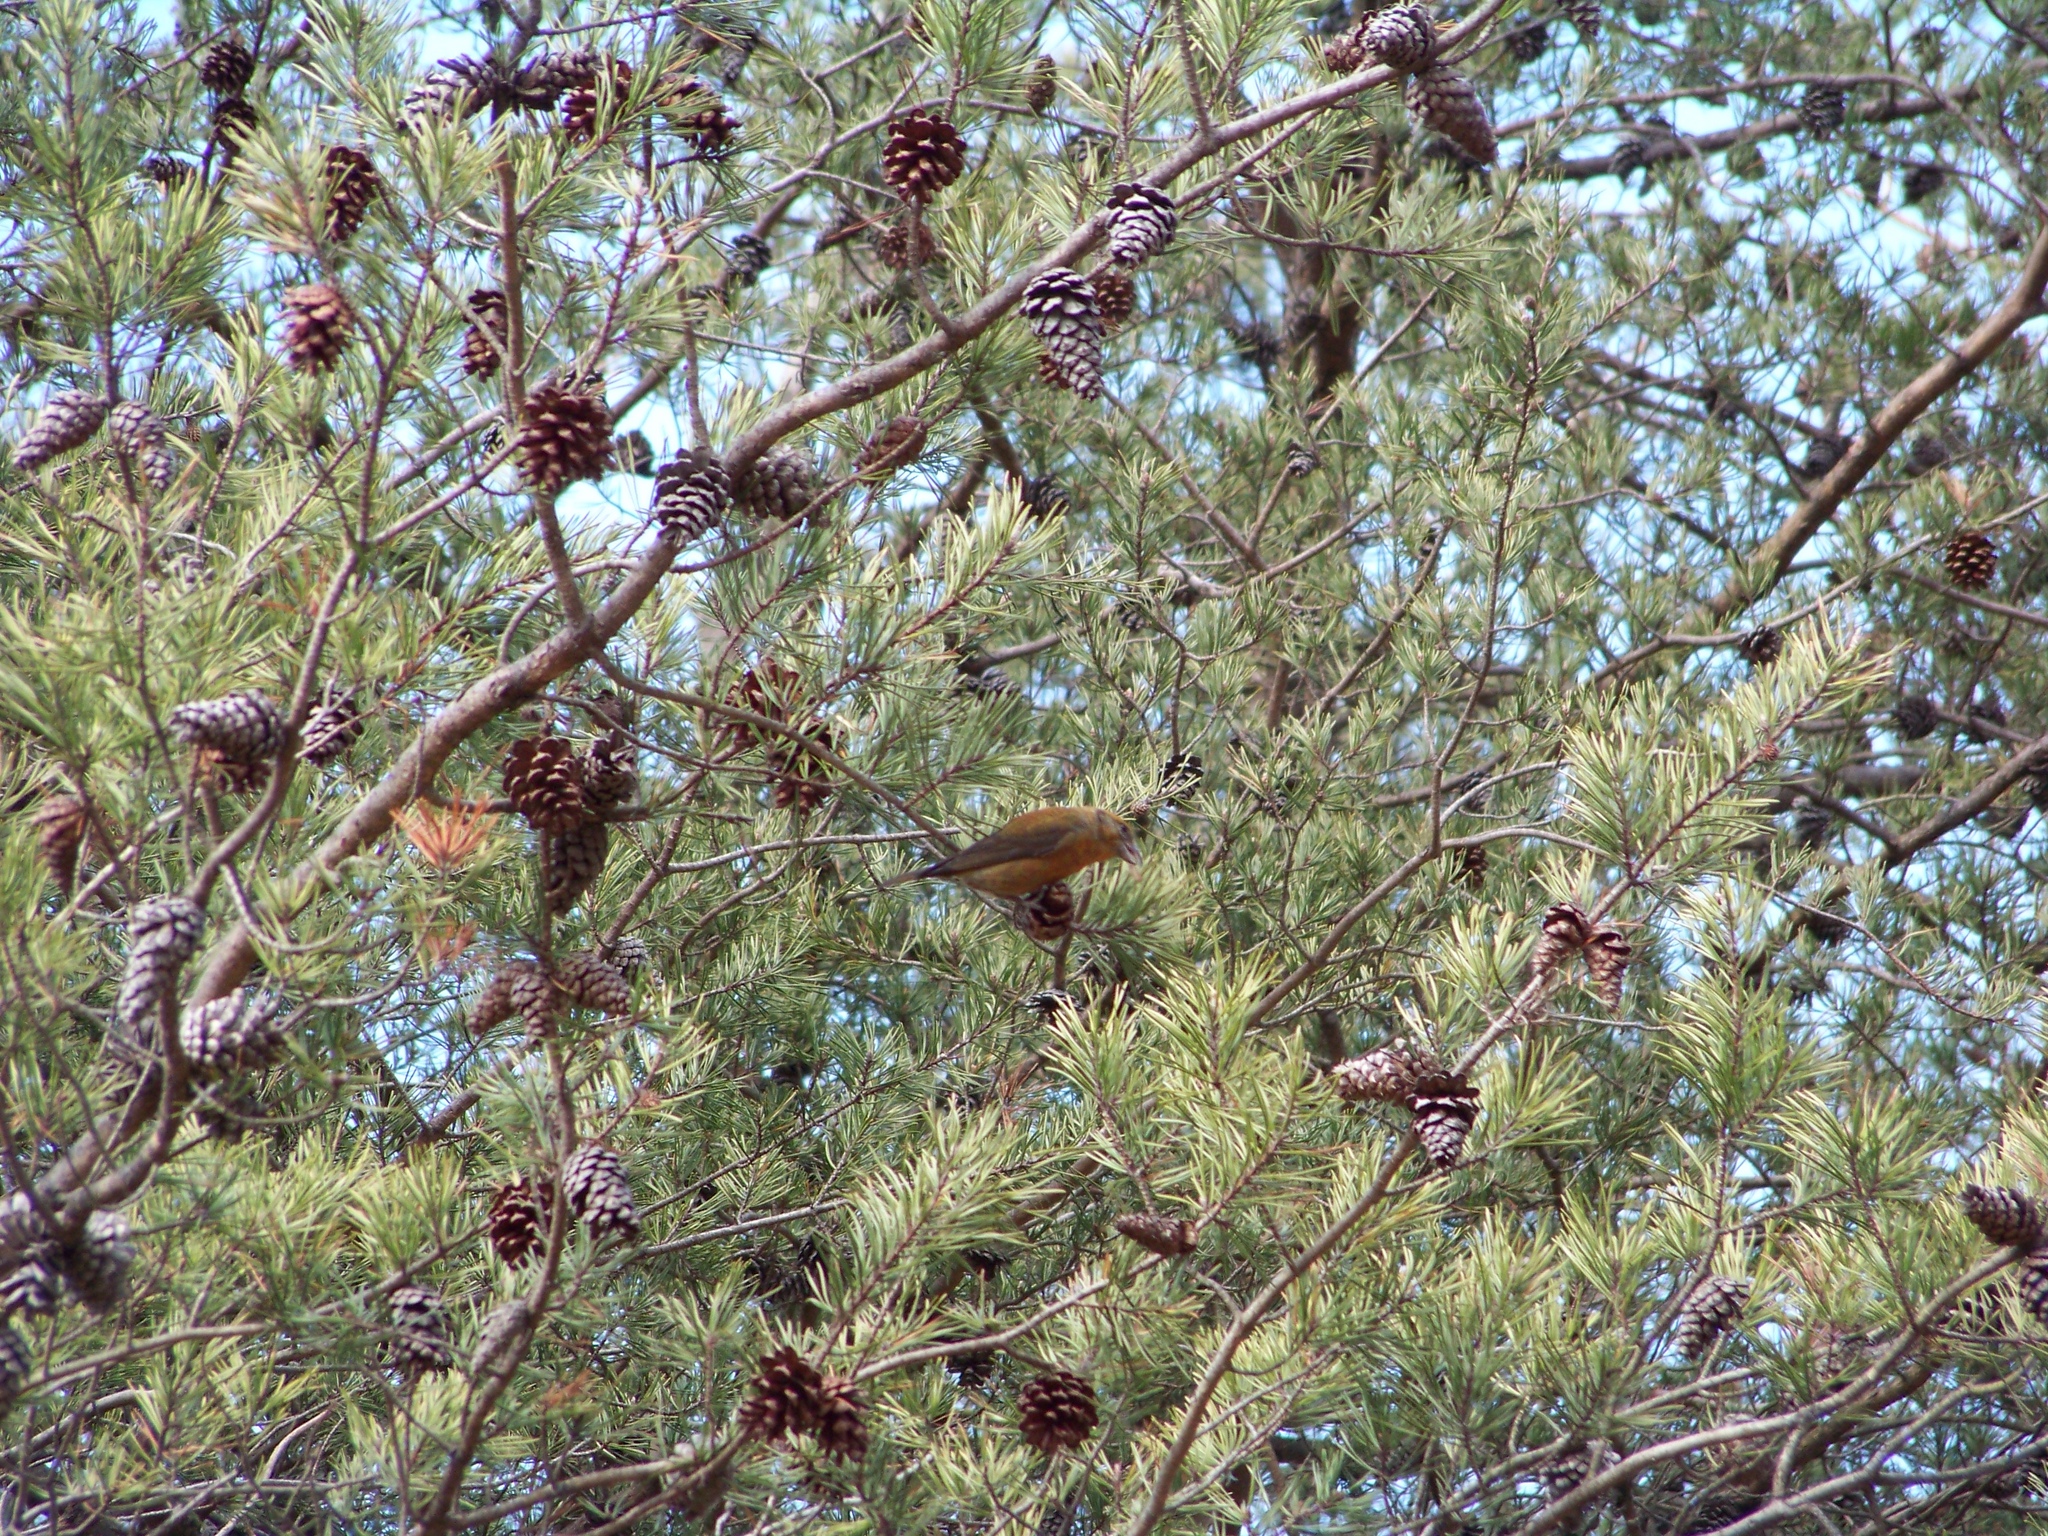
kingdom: Animalia
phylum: Chordata
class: Aves
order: Passeriformes
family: Fringillidae
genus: Loxia
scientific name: Loxia curvirostra
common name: Red crossbill
